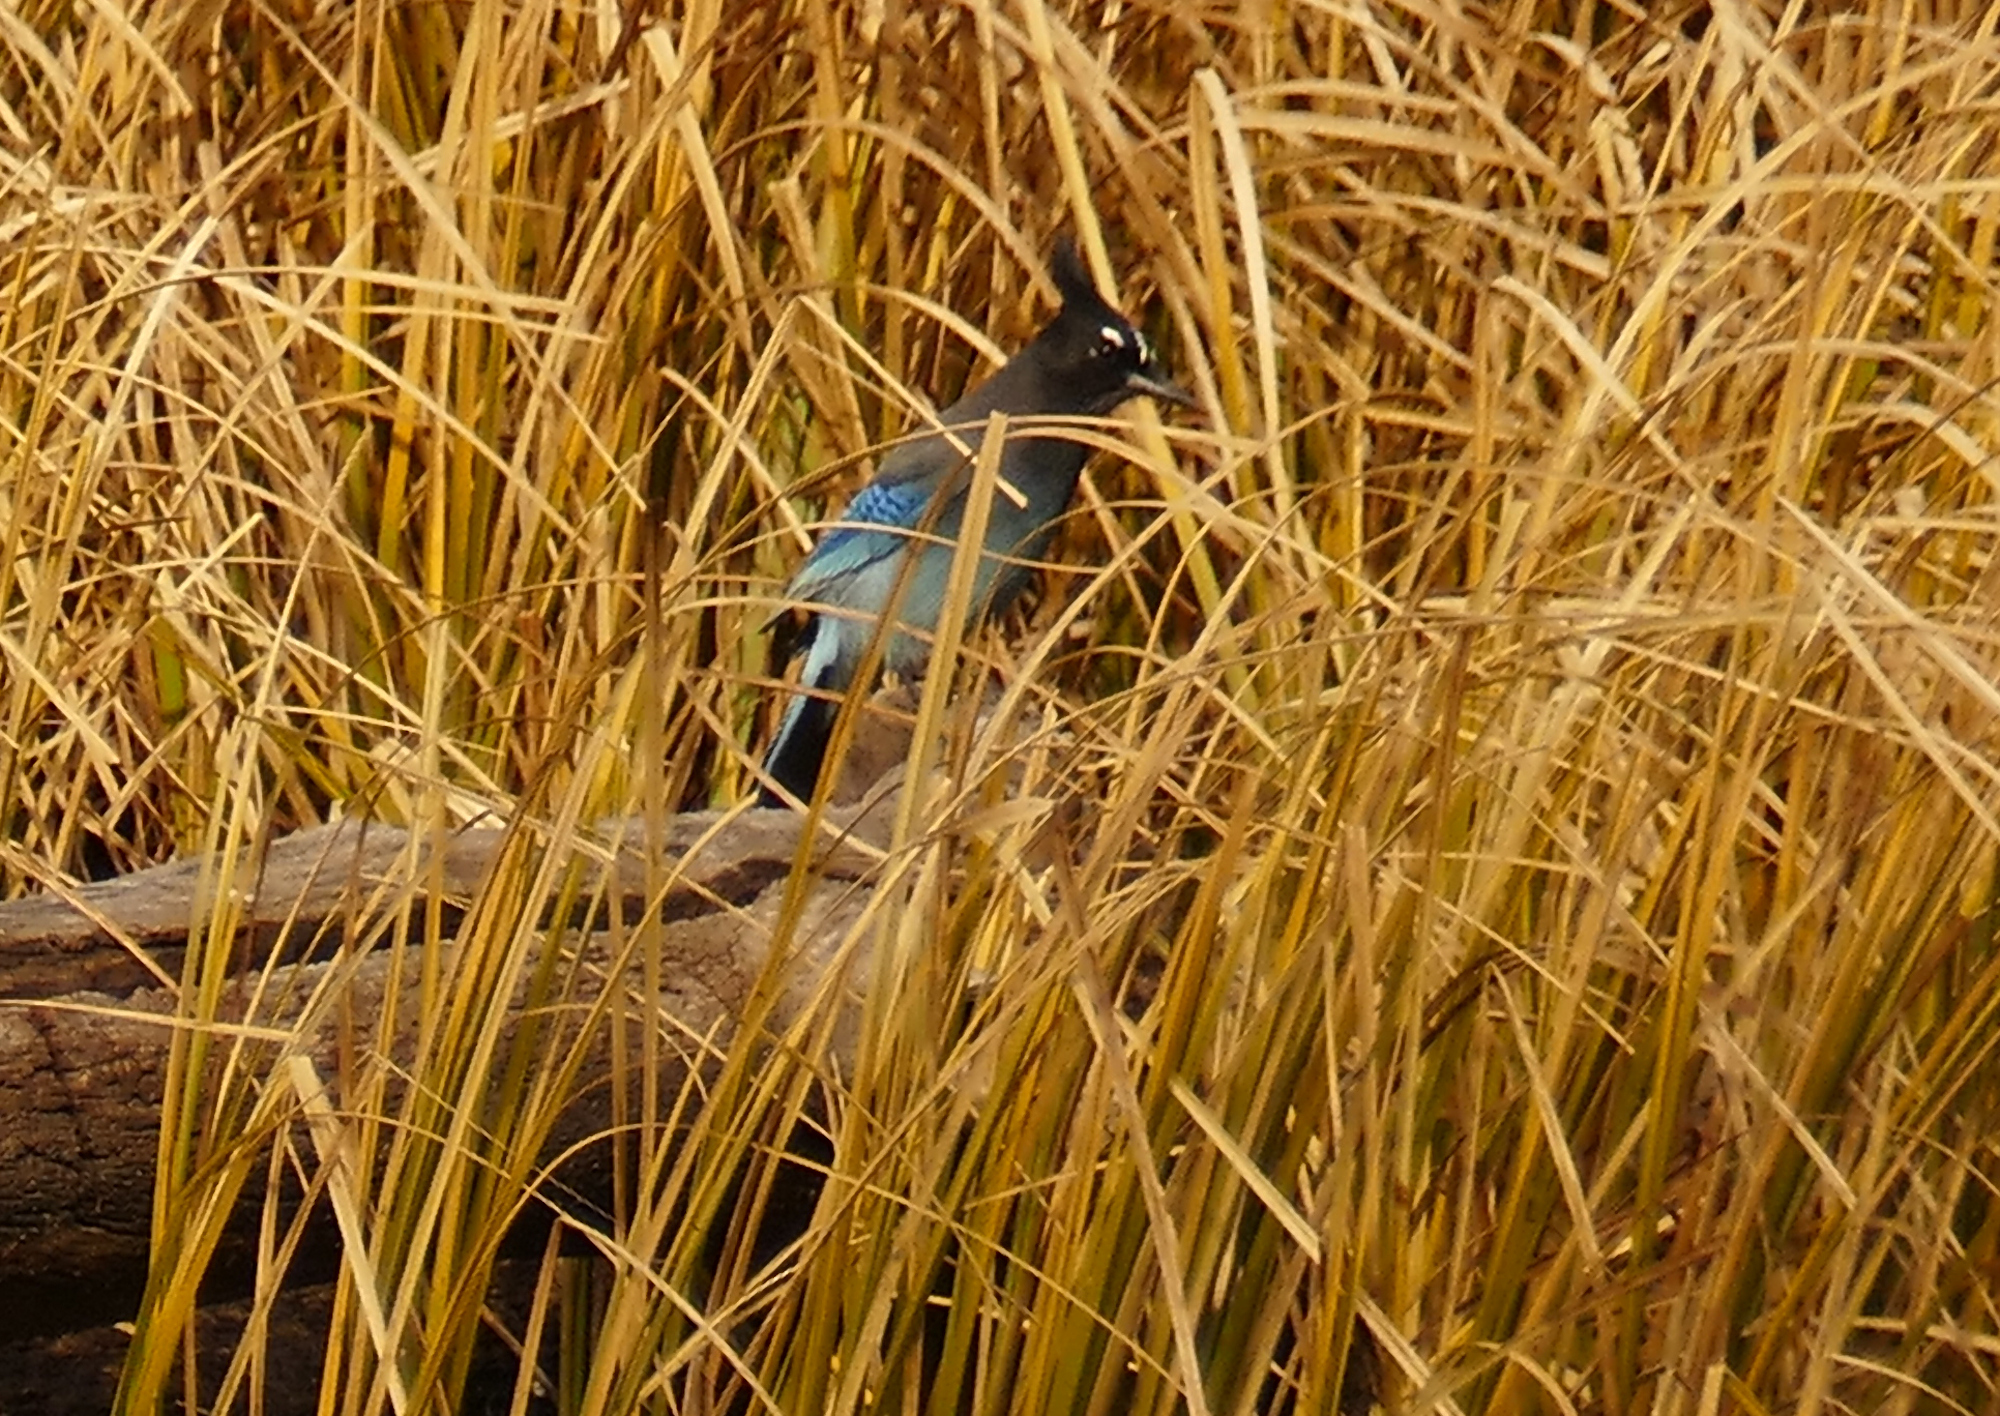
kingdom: Animalia
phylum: Chordata
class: Aves
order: Passeriformes
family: Corvidae
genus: Cyanocitta
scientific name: Cyanocitta stelleri
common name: Steller's jay
